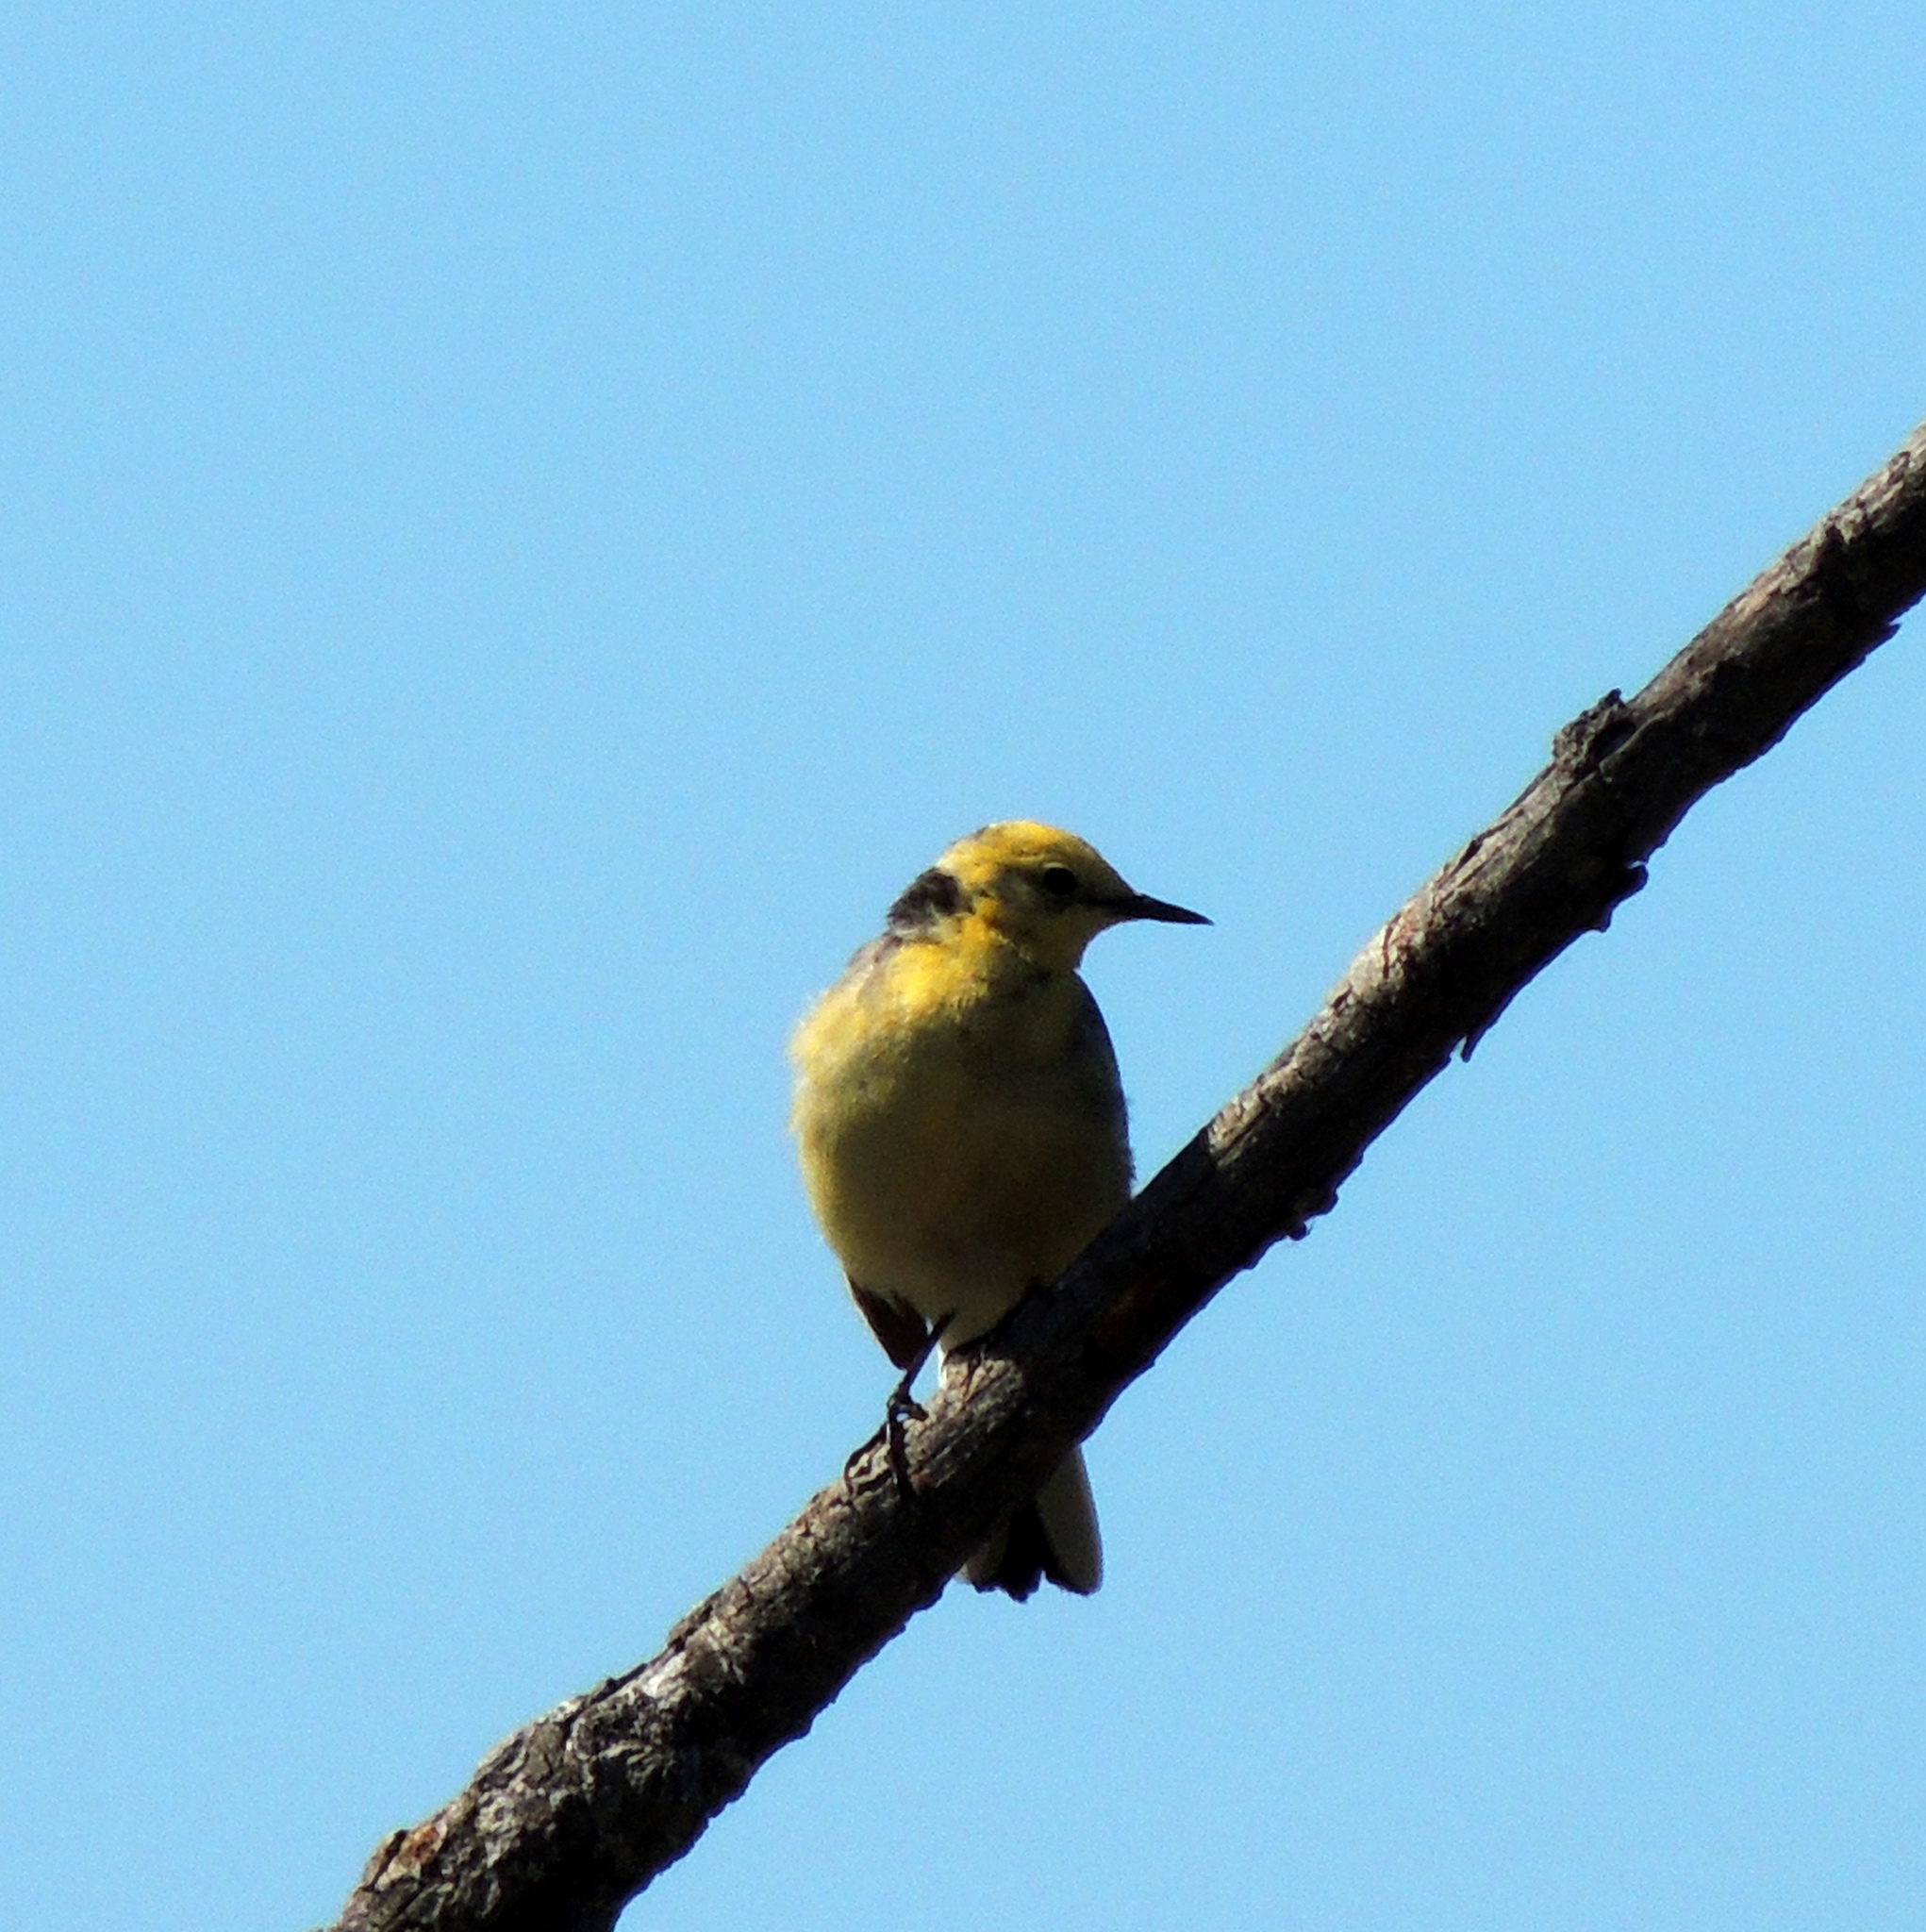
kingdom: Animalia
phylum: Chordata
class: Aves
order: Passeriformes
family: Motacillidae
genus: Motacilla
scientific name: Motacilla citreola
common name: Citrine wagtail
